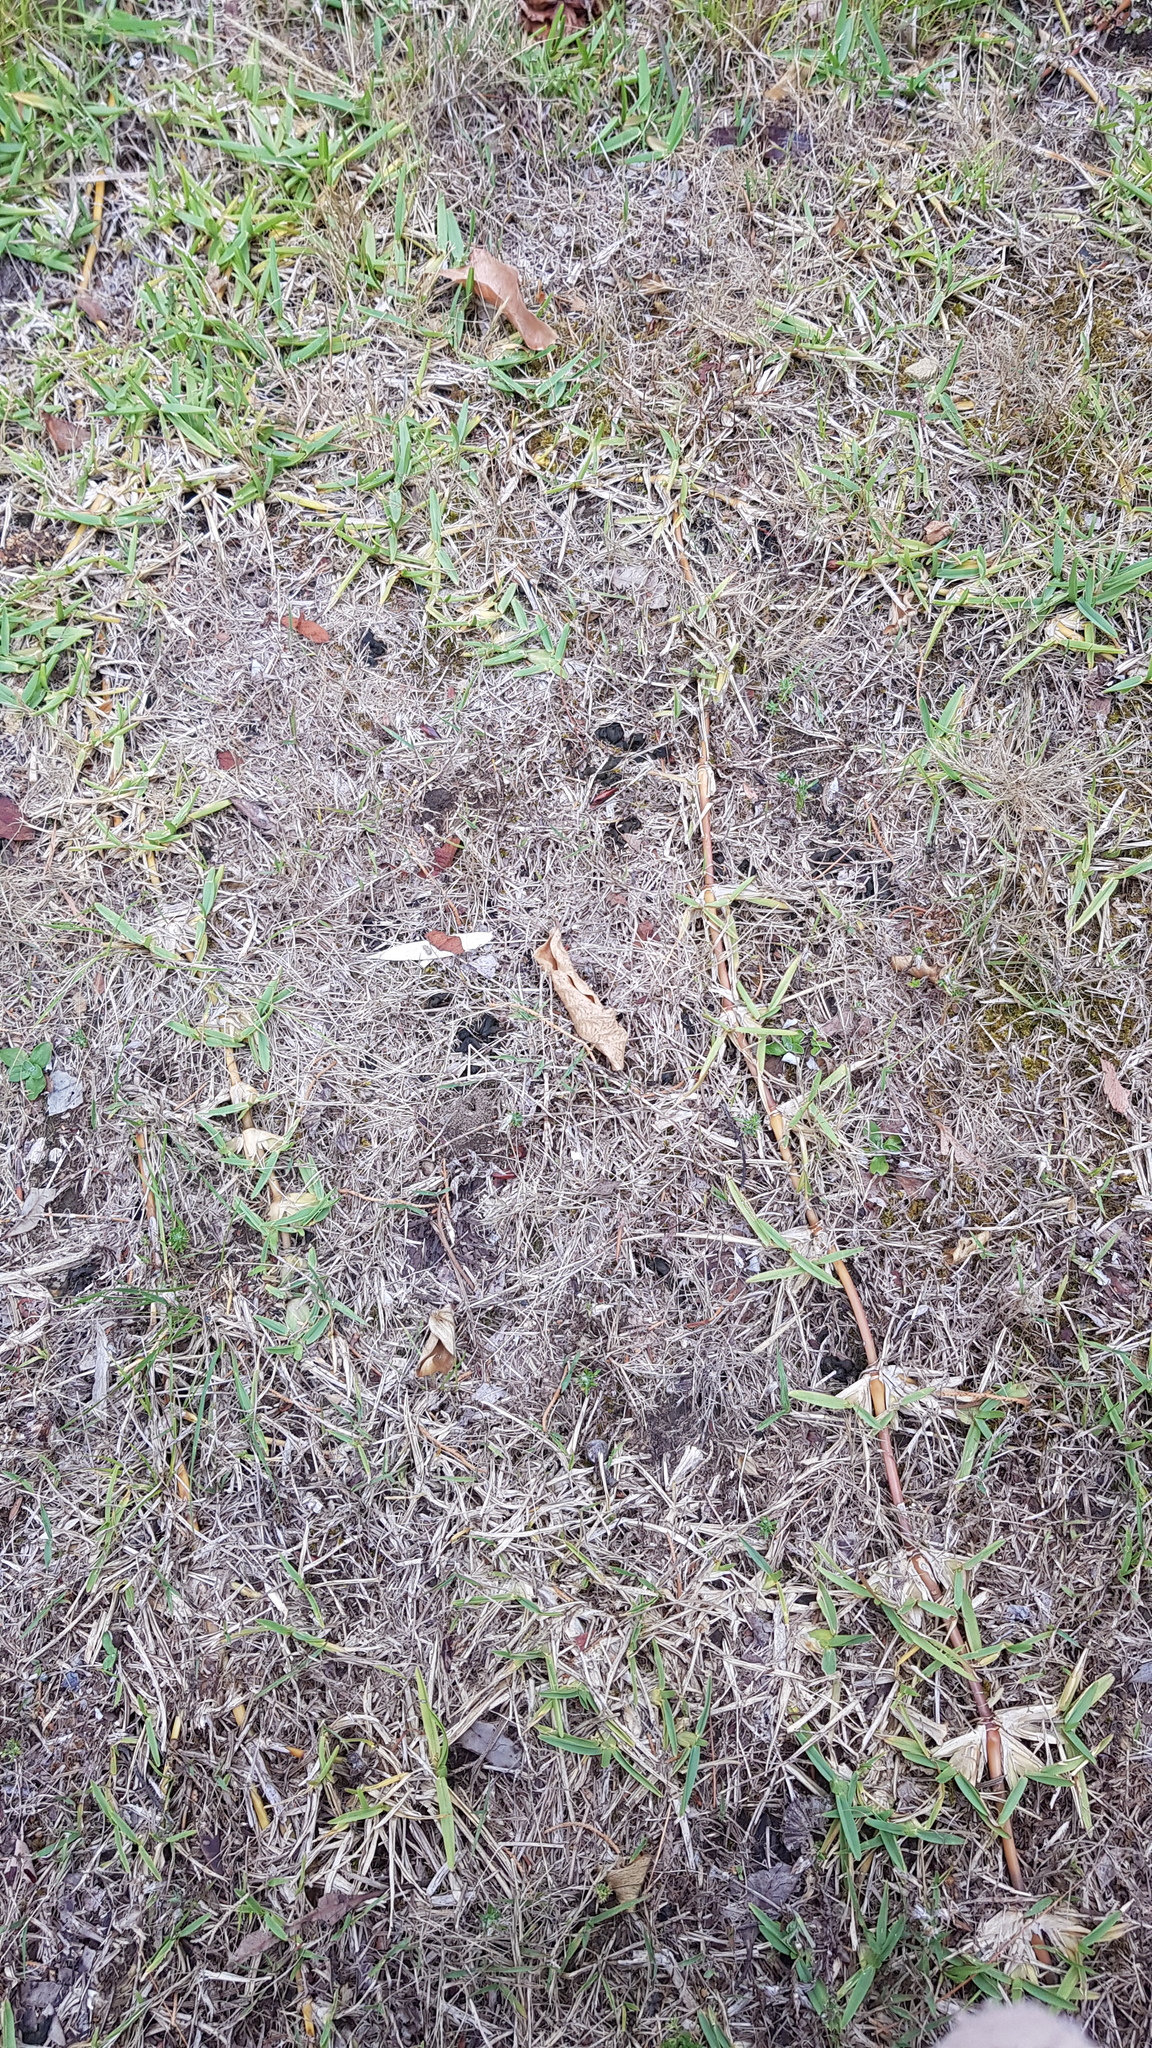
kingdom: Bacteria
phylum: Cyanobacteria
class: Cyanobacteriia
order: Cyanobacteriales
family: Nostocaceae
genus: Nostoc
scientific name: Nostoc commune
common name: Star jelly
